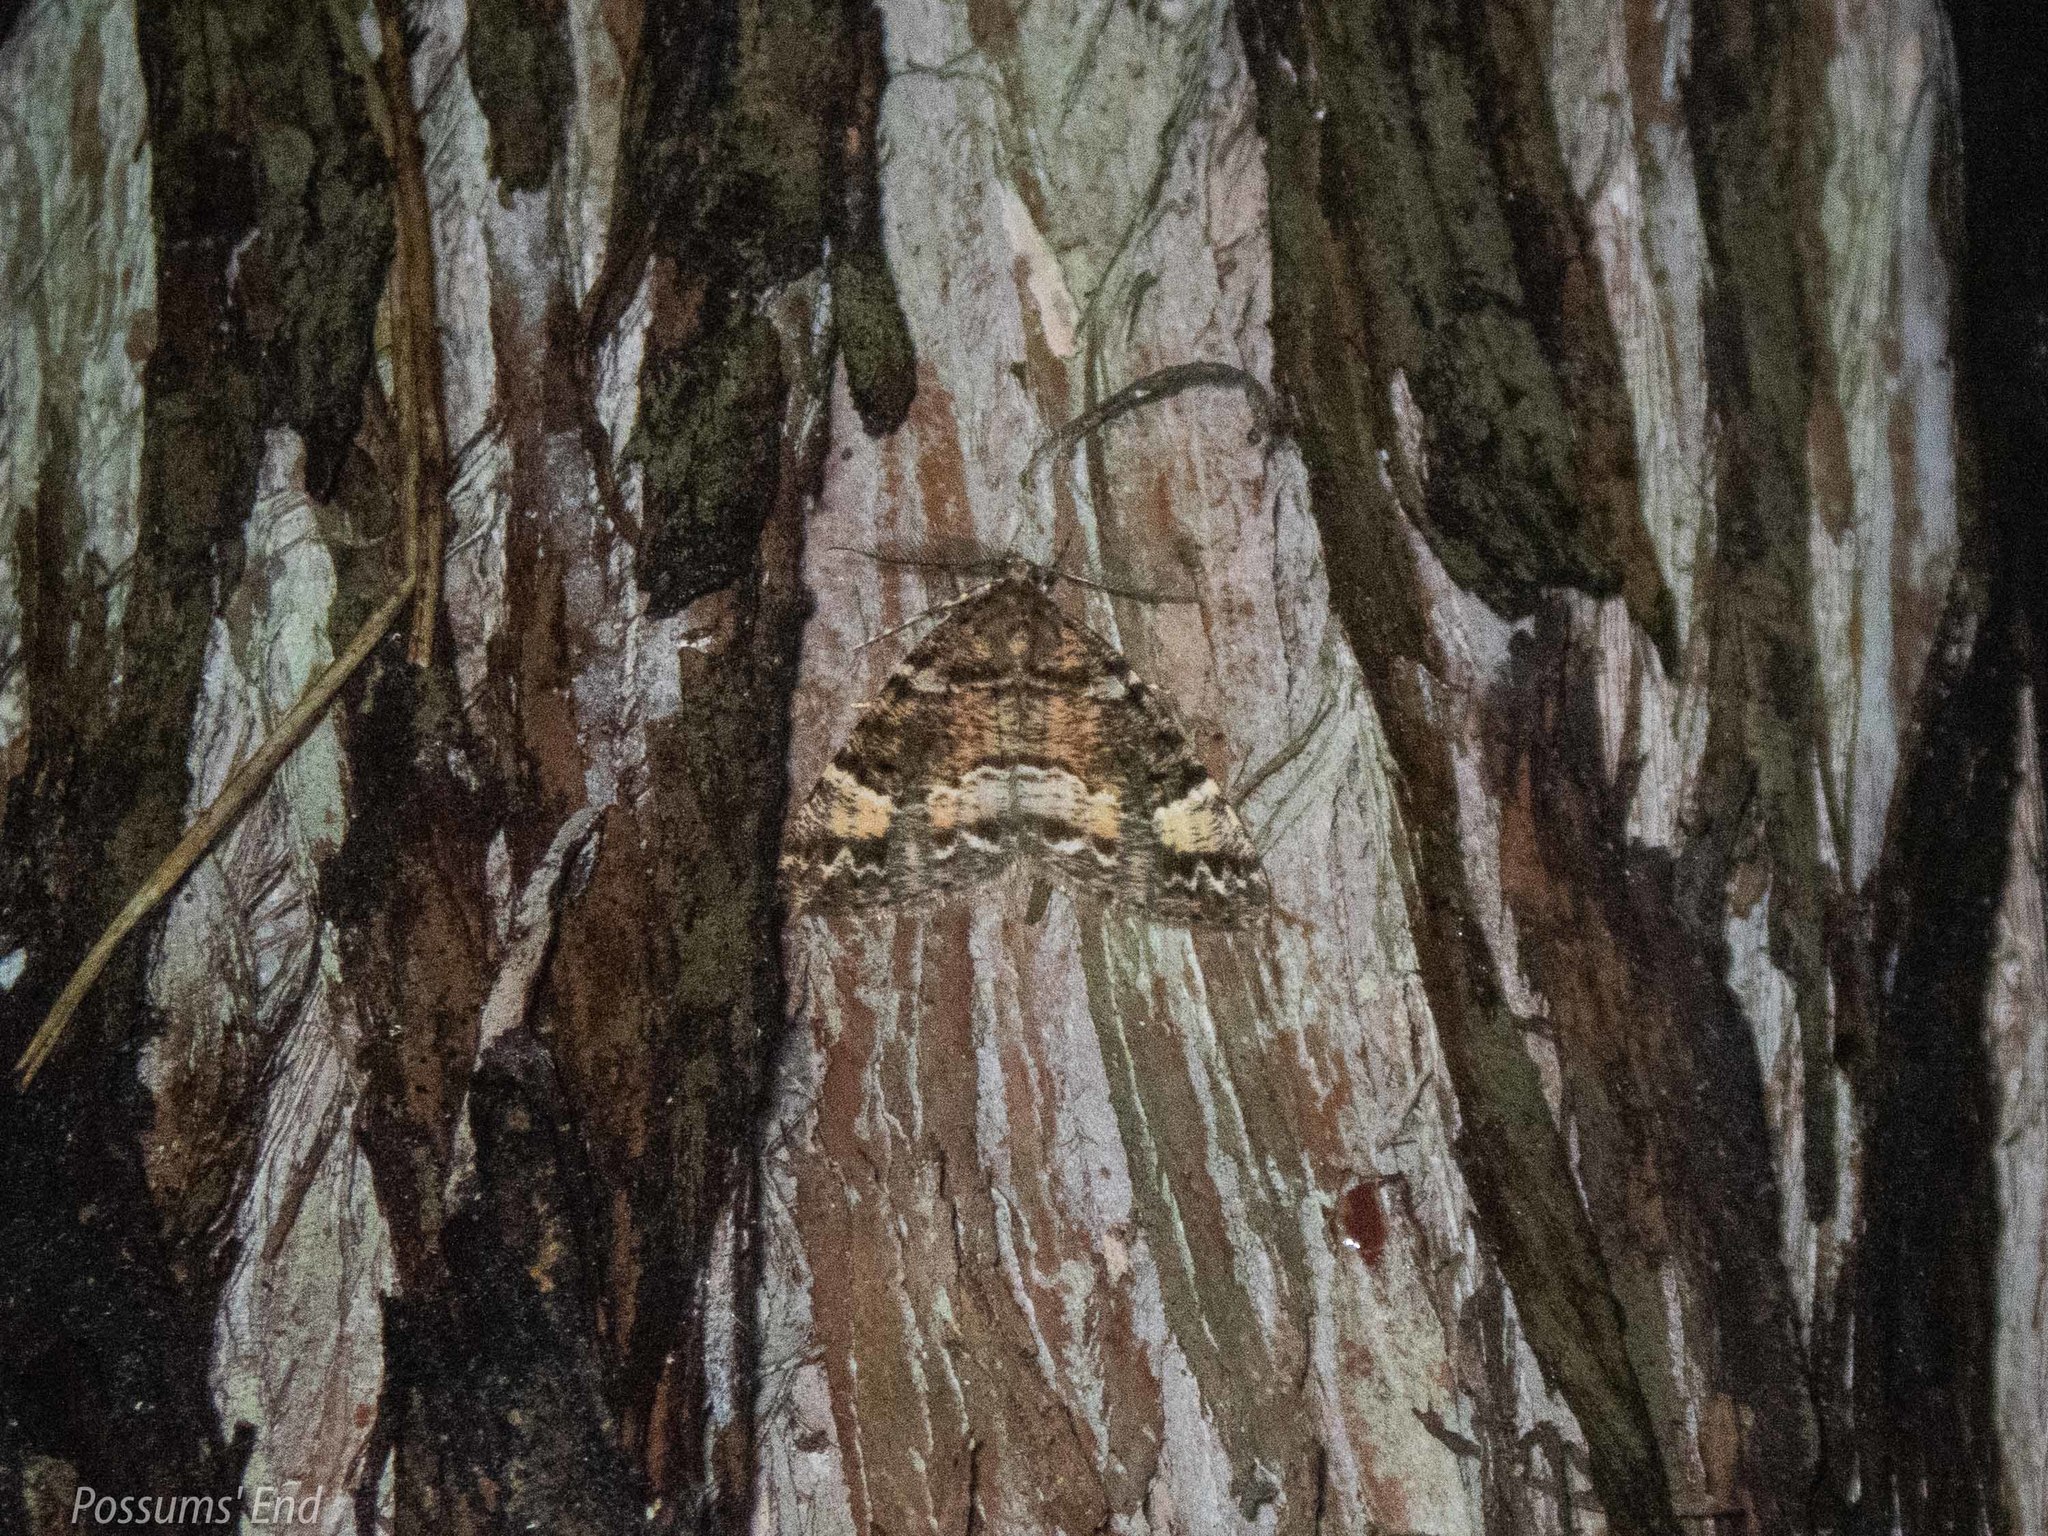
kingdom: Animalia
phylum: Arthropoda
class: Insecta
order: Lepidoptera
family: Geometridae
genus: Pseudocoremia
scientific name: Pseudocoremia productata
